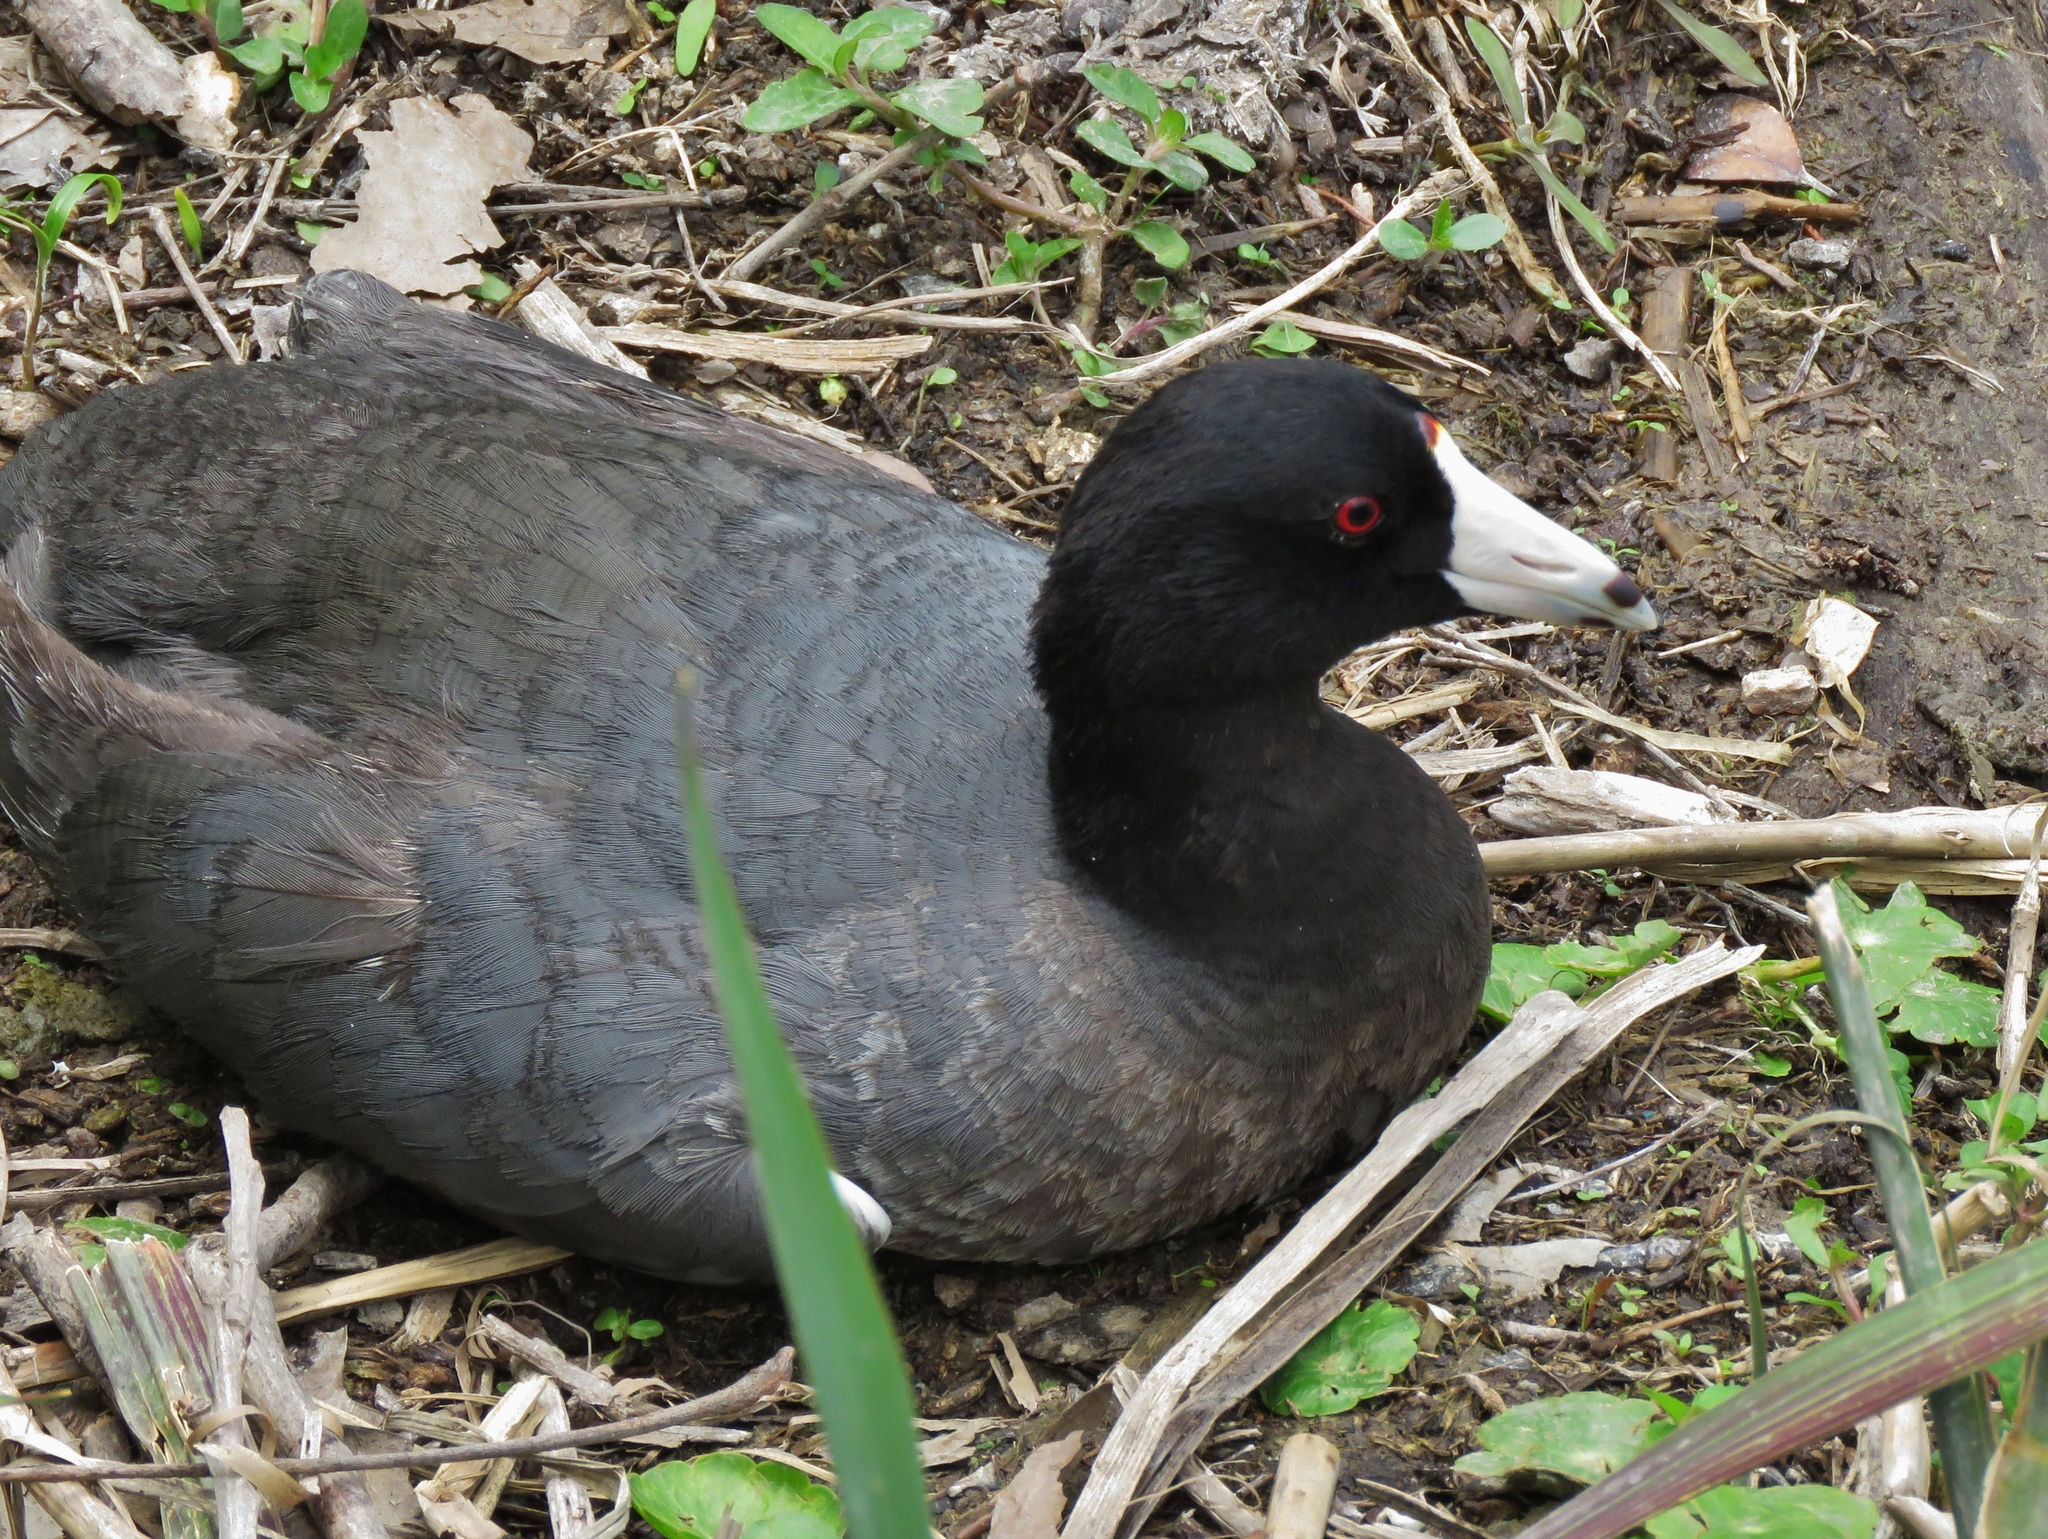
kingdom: Animalia
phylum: Chordata
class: Aves
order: Gruiformes
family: Rallidae
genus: Fulica
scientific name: Fulica americana
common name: American coot
